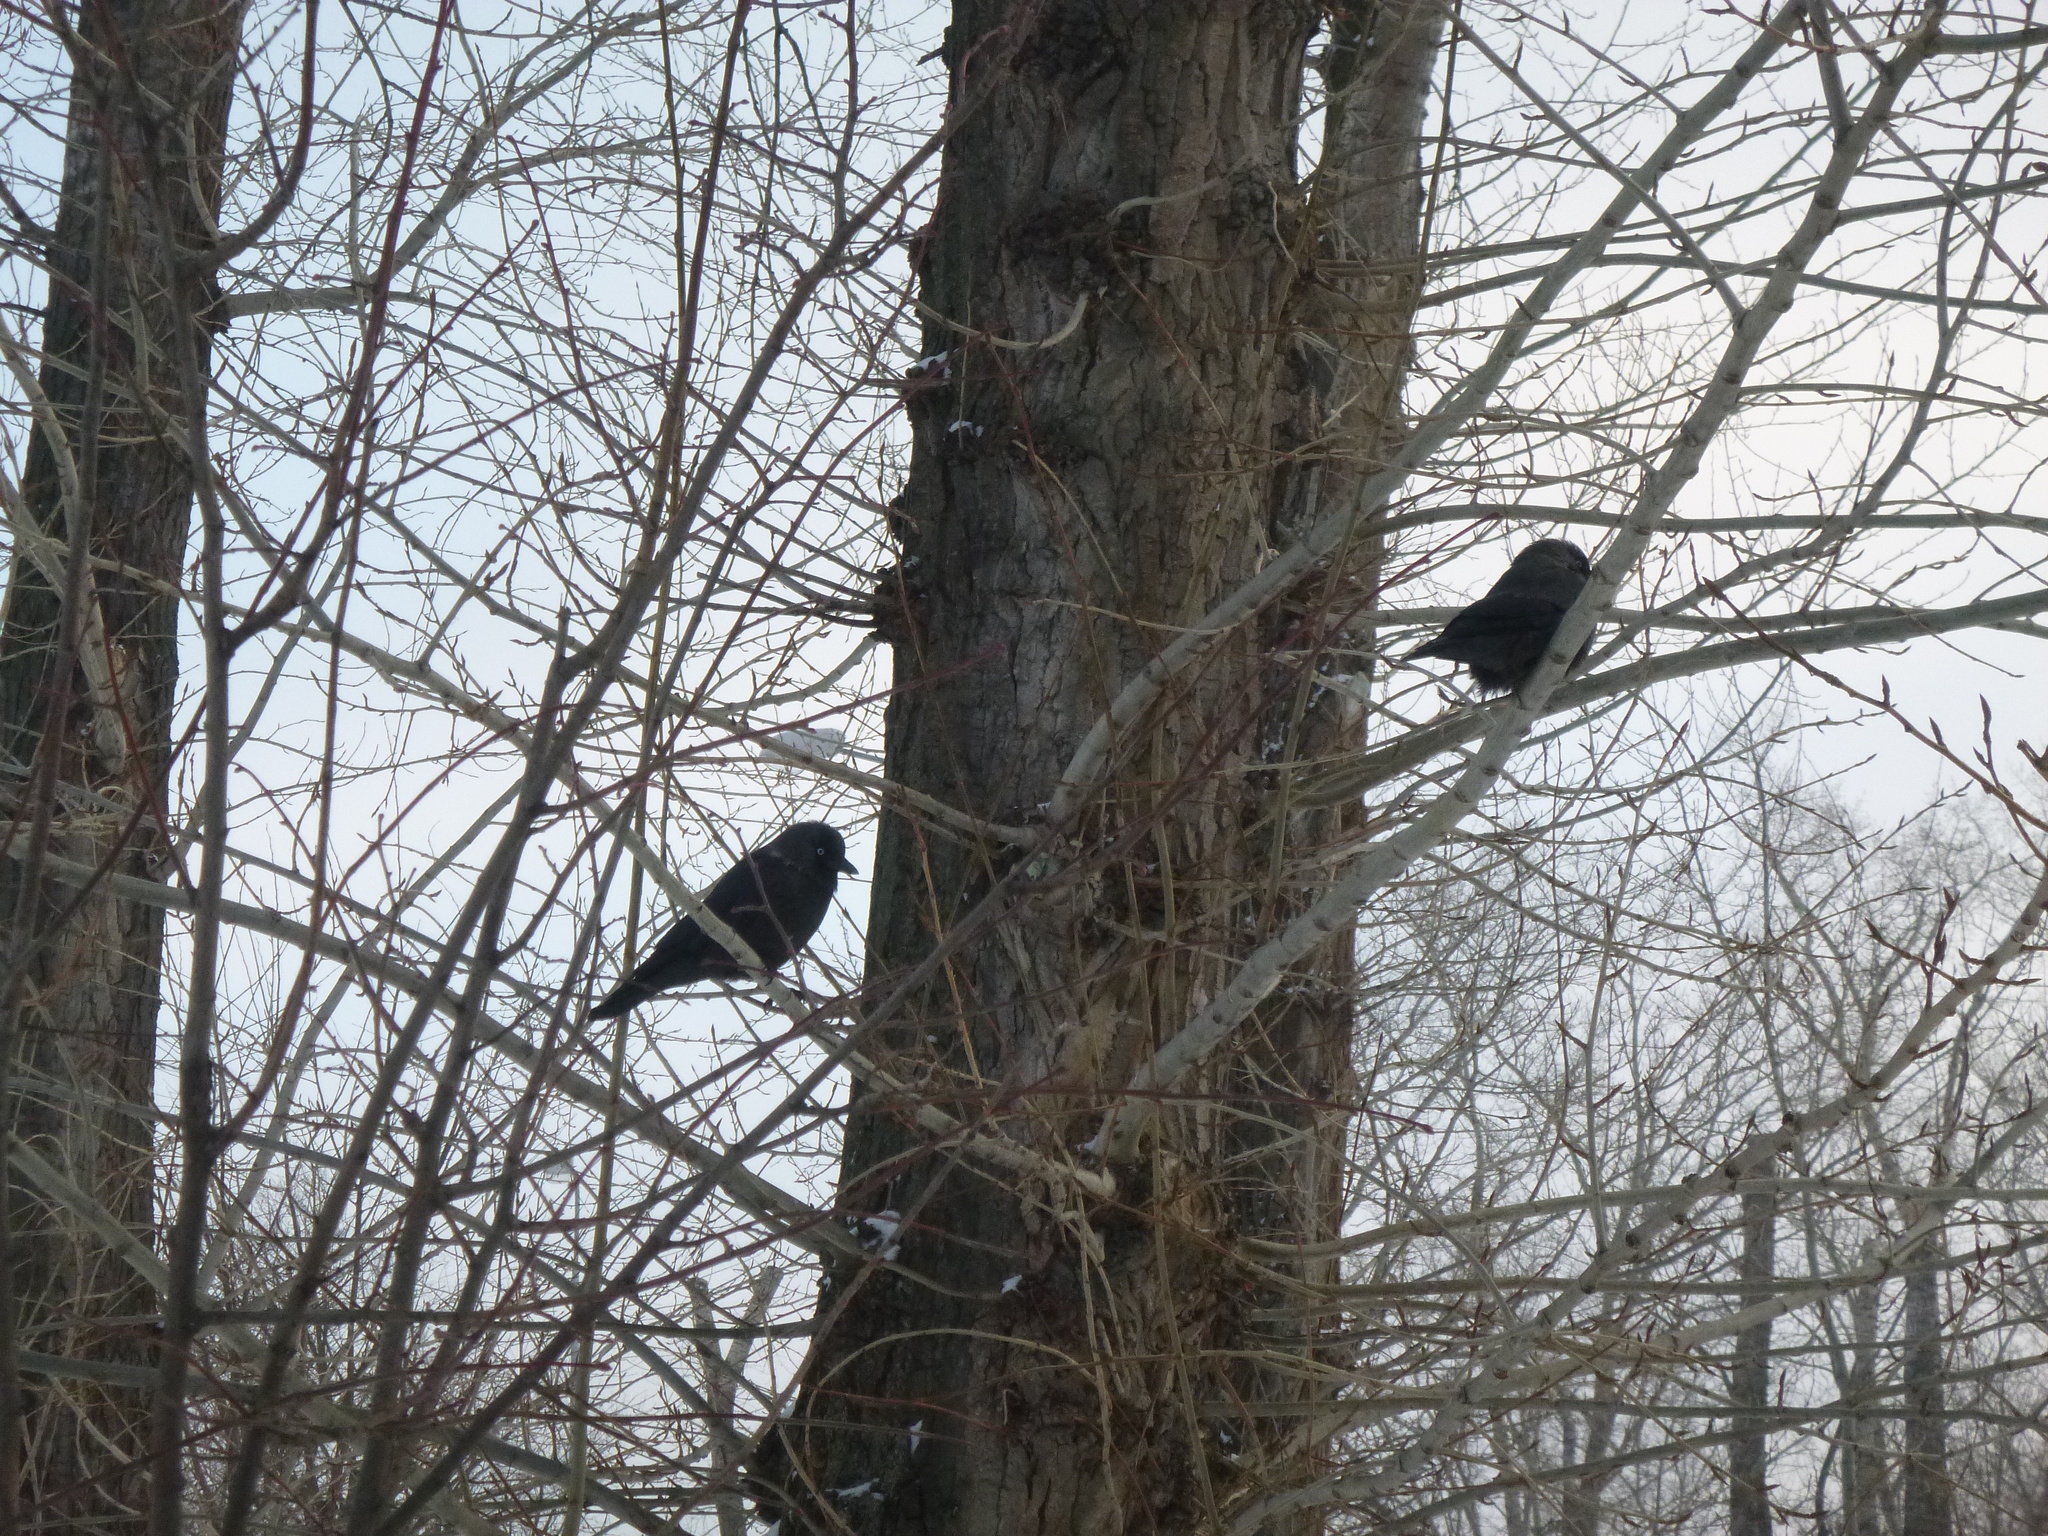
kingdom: Animalia
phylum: Chordata
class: Aves
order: Passeriformes
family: Corvidae
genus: Coloeus
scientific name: Coloeus monedula
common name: Western jackdaw
